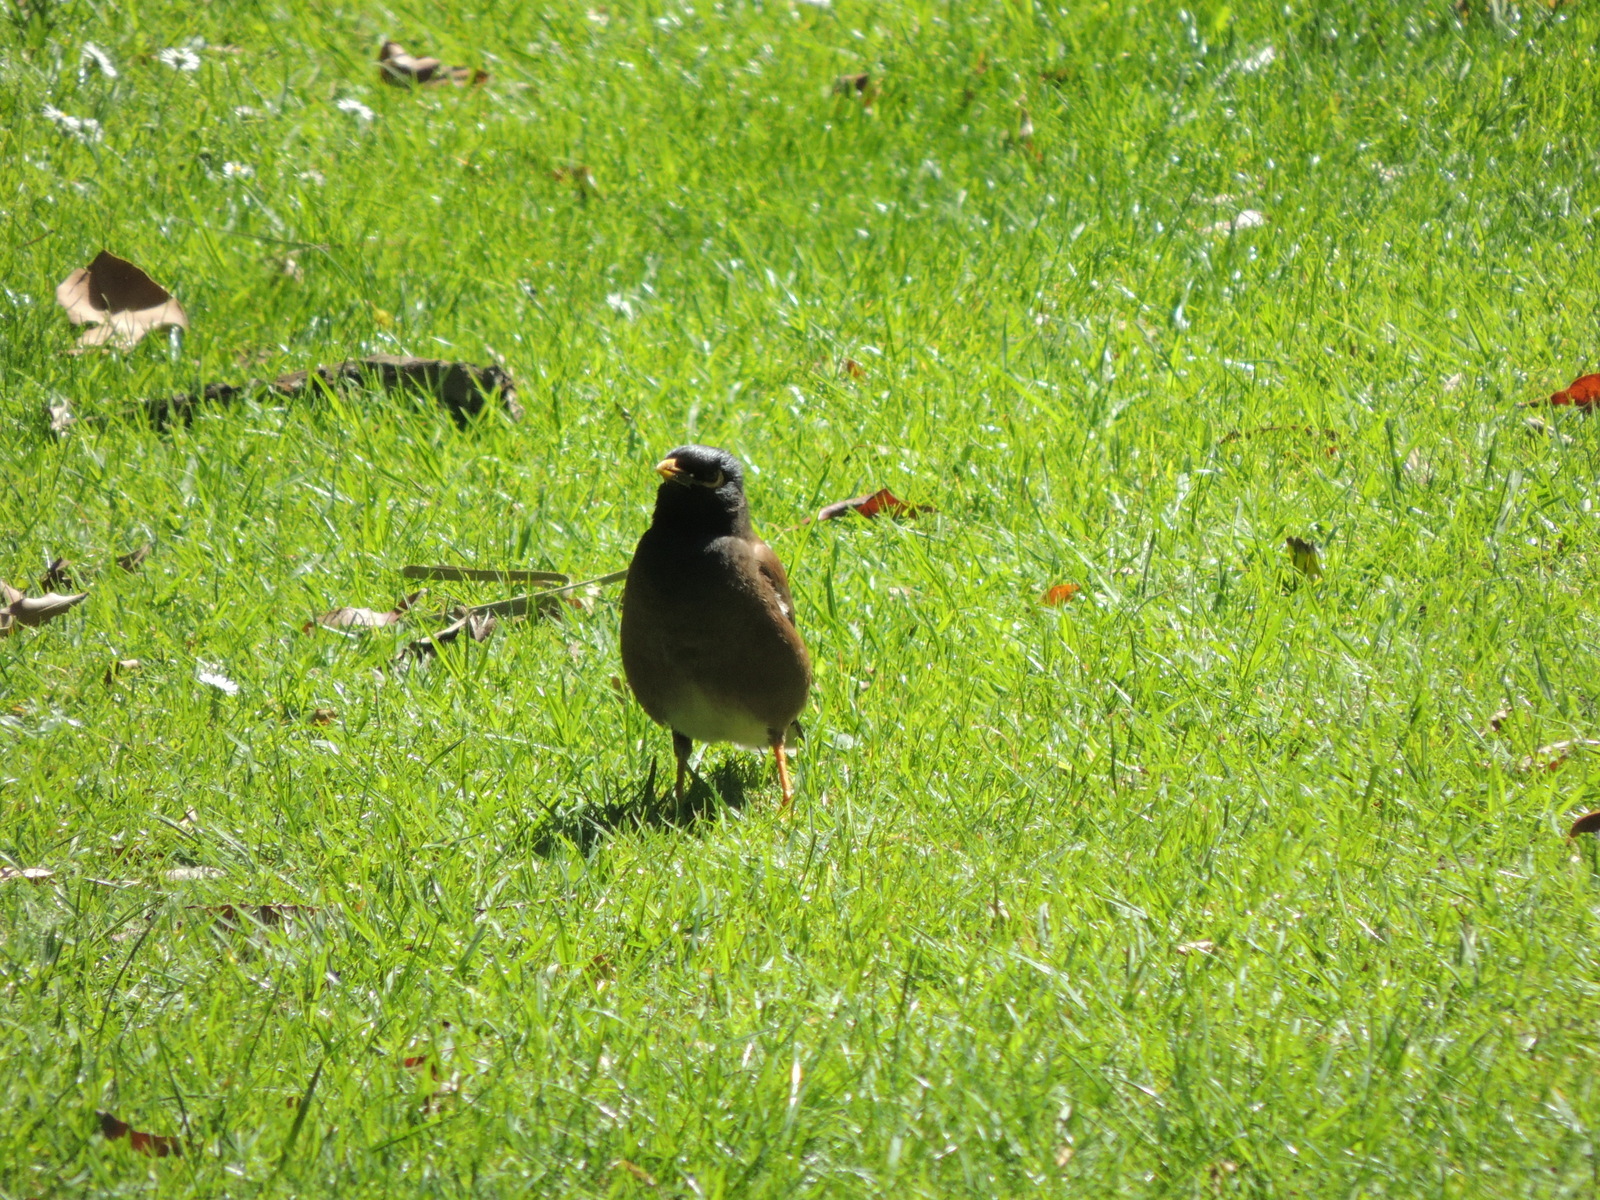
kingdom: Animalia
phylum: Chordata
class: Aves
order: Passeriformes
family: Sturnidae
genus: Acridotheres
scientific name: Acridotheres tristis
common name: Common myna
